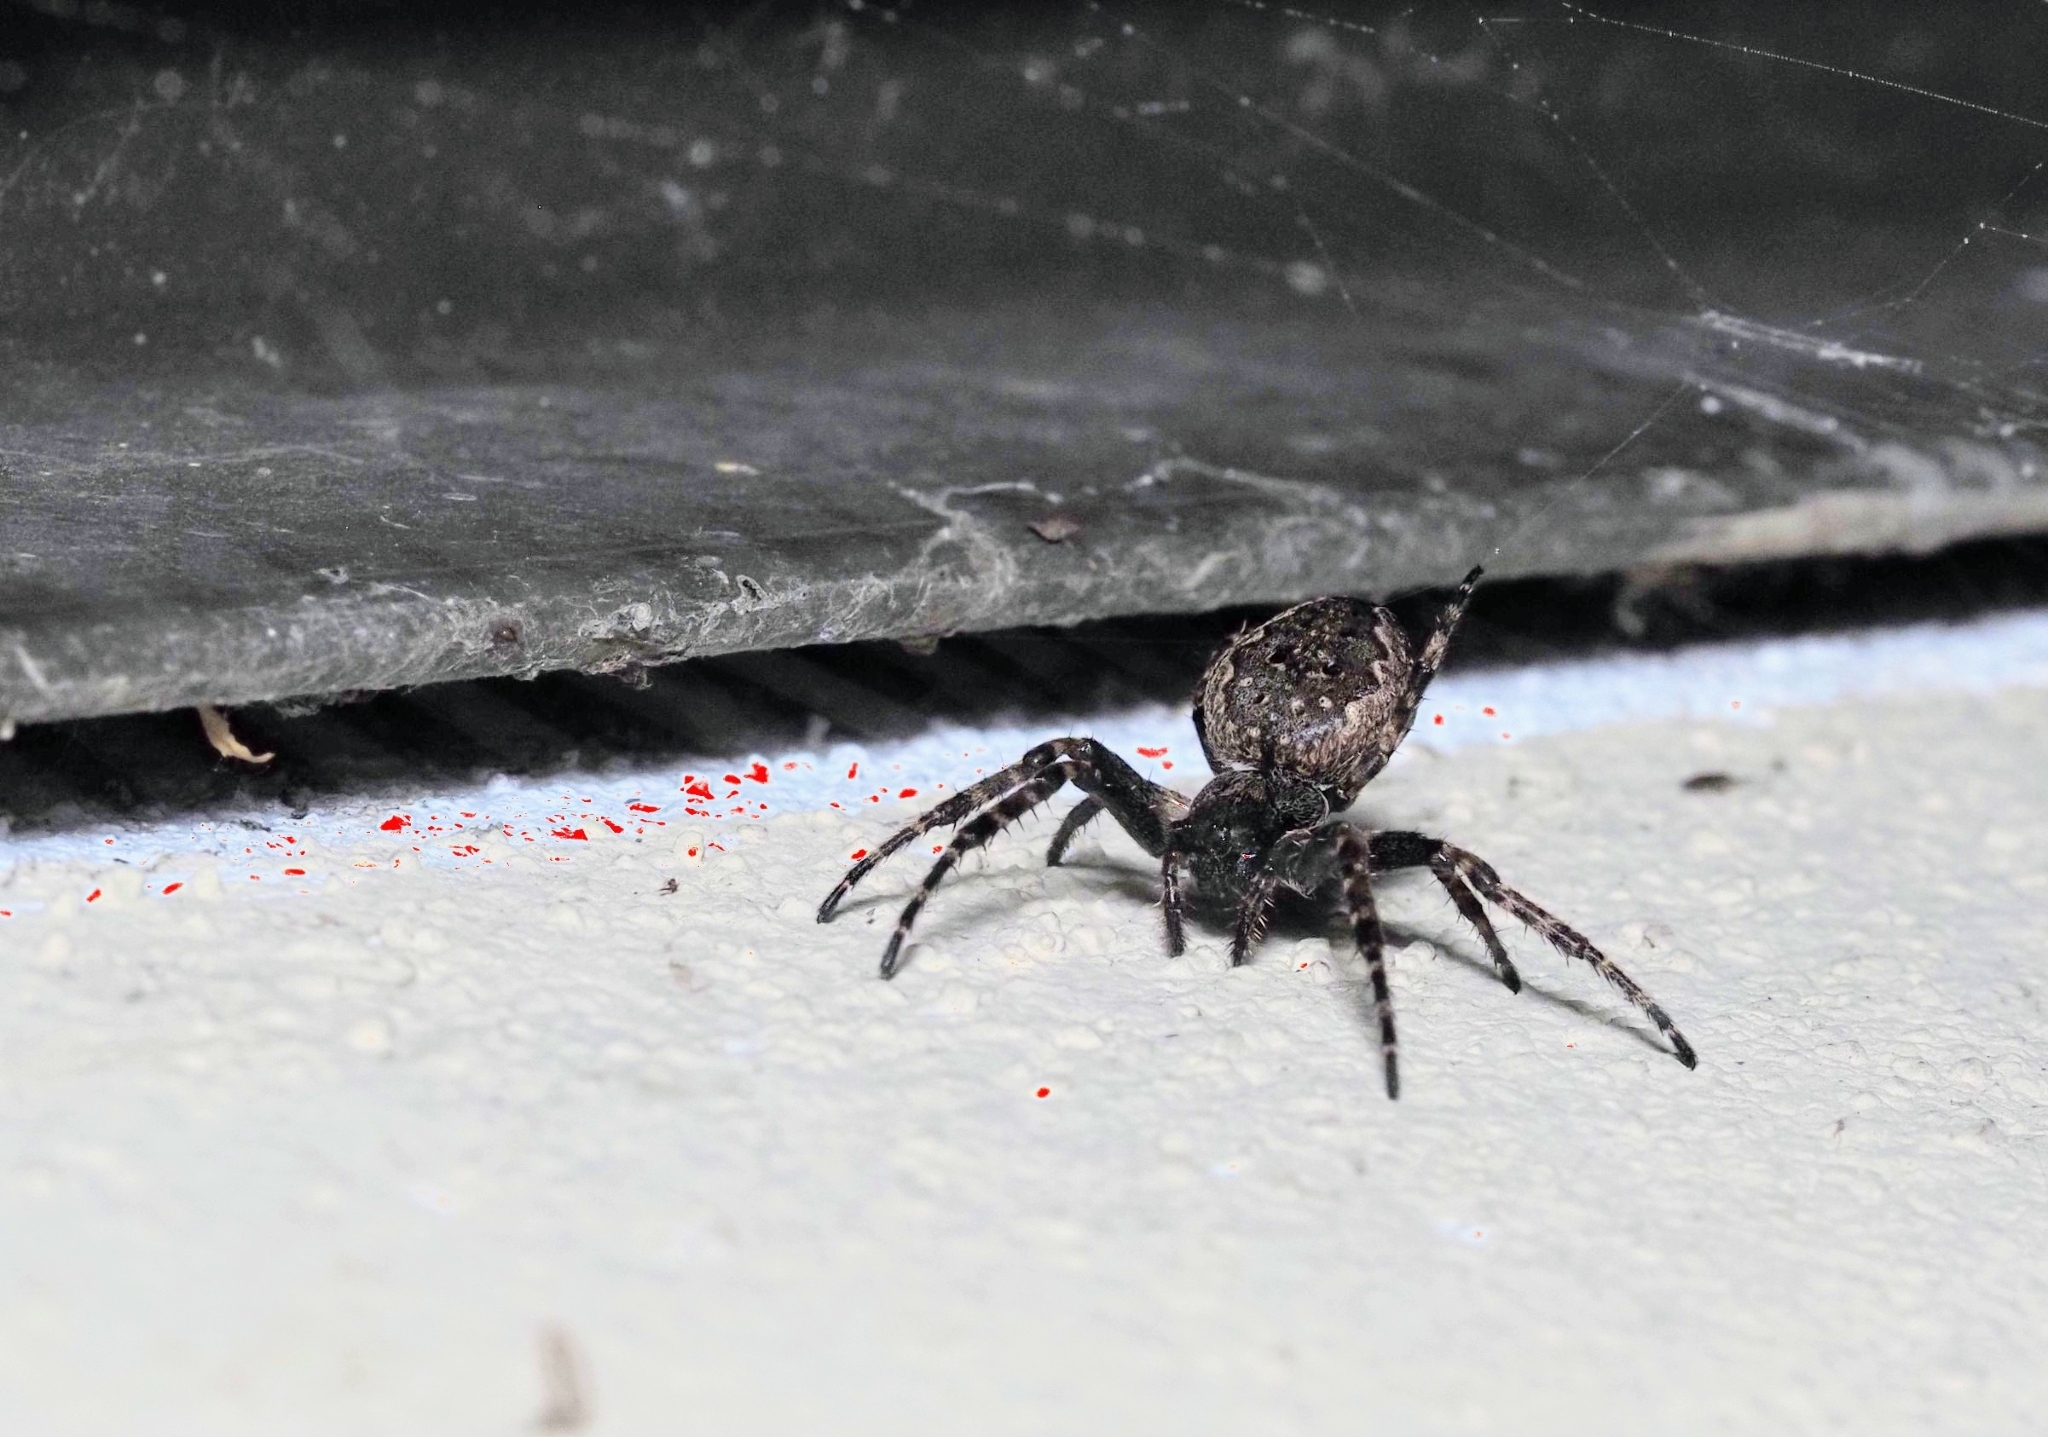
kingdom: Animalia
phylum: Arthropoda
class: Arachnida
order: Araneae
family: Araneidae
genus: Nuctenea
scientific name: Nuctenea umbratica
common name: Toad spider
